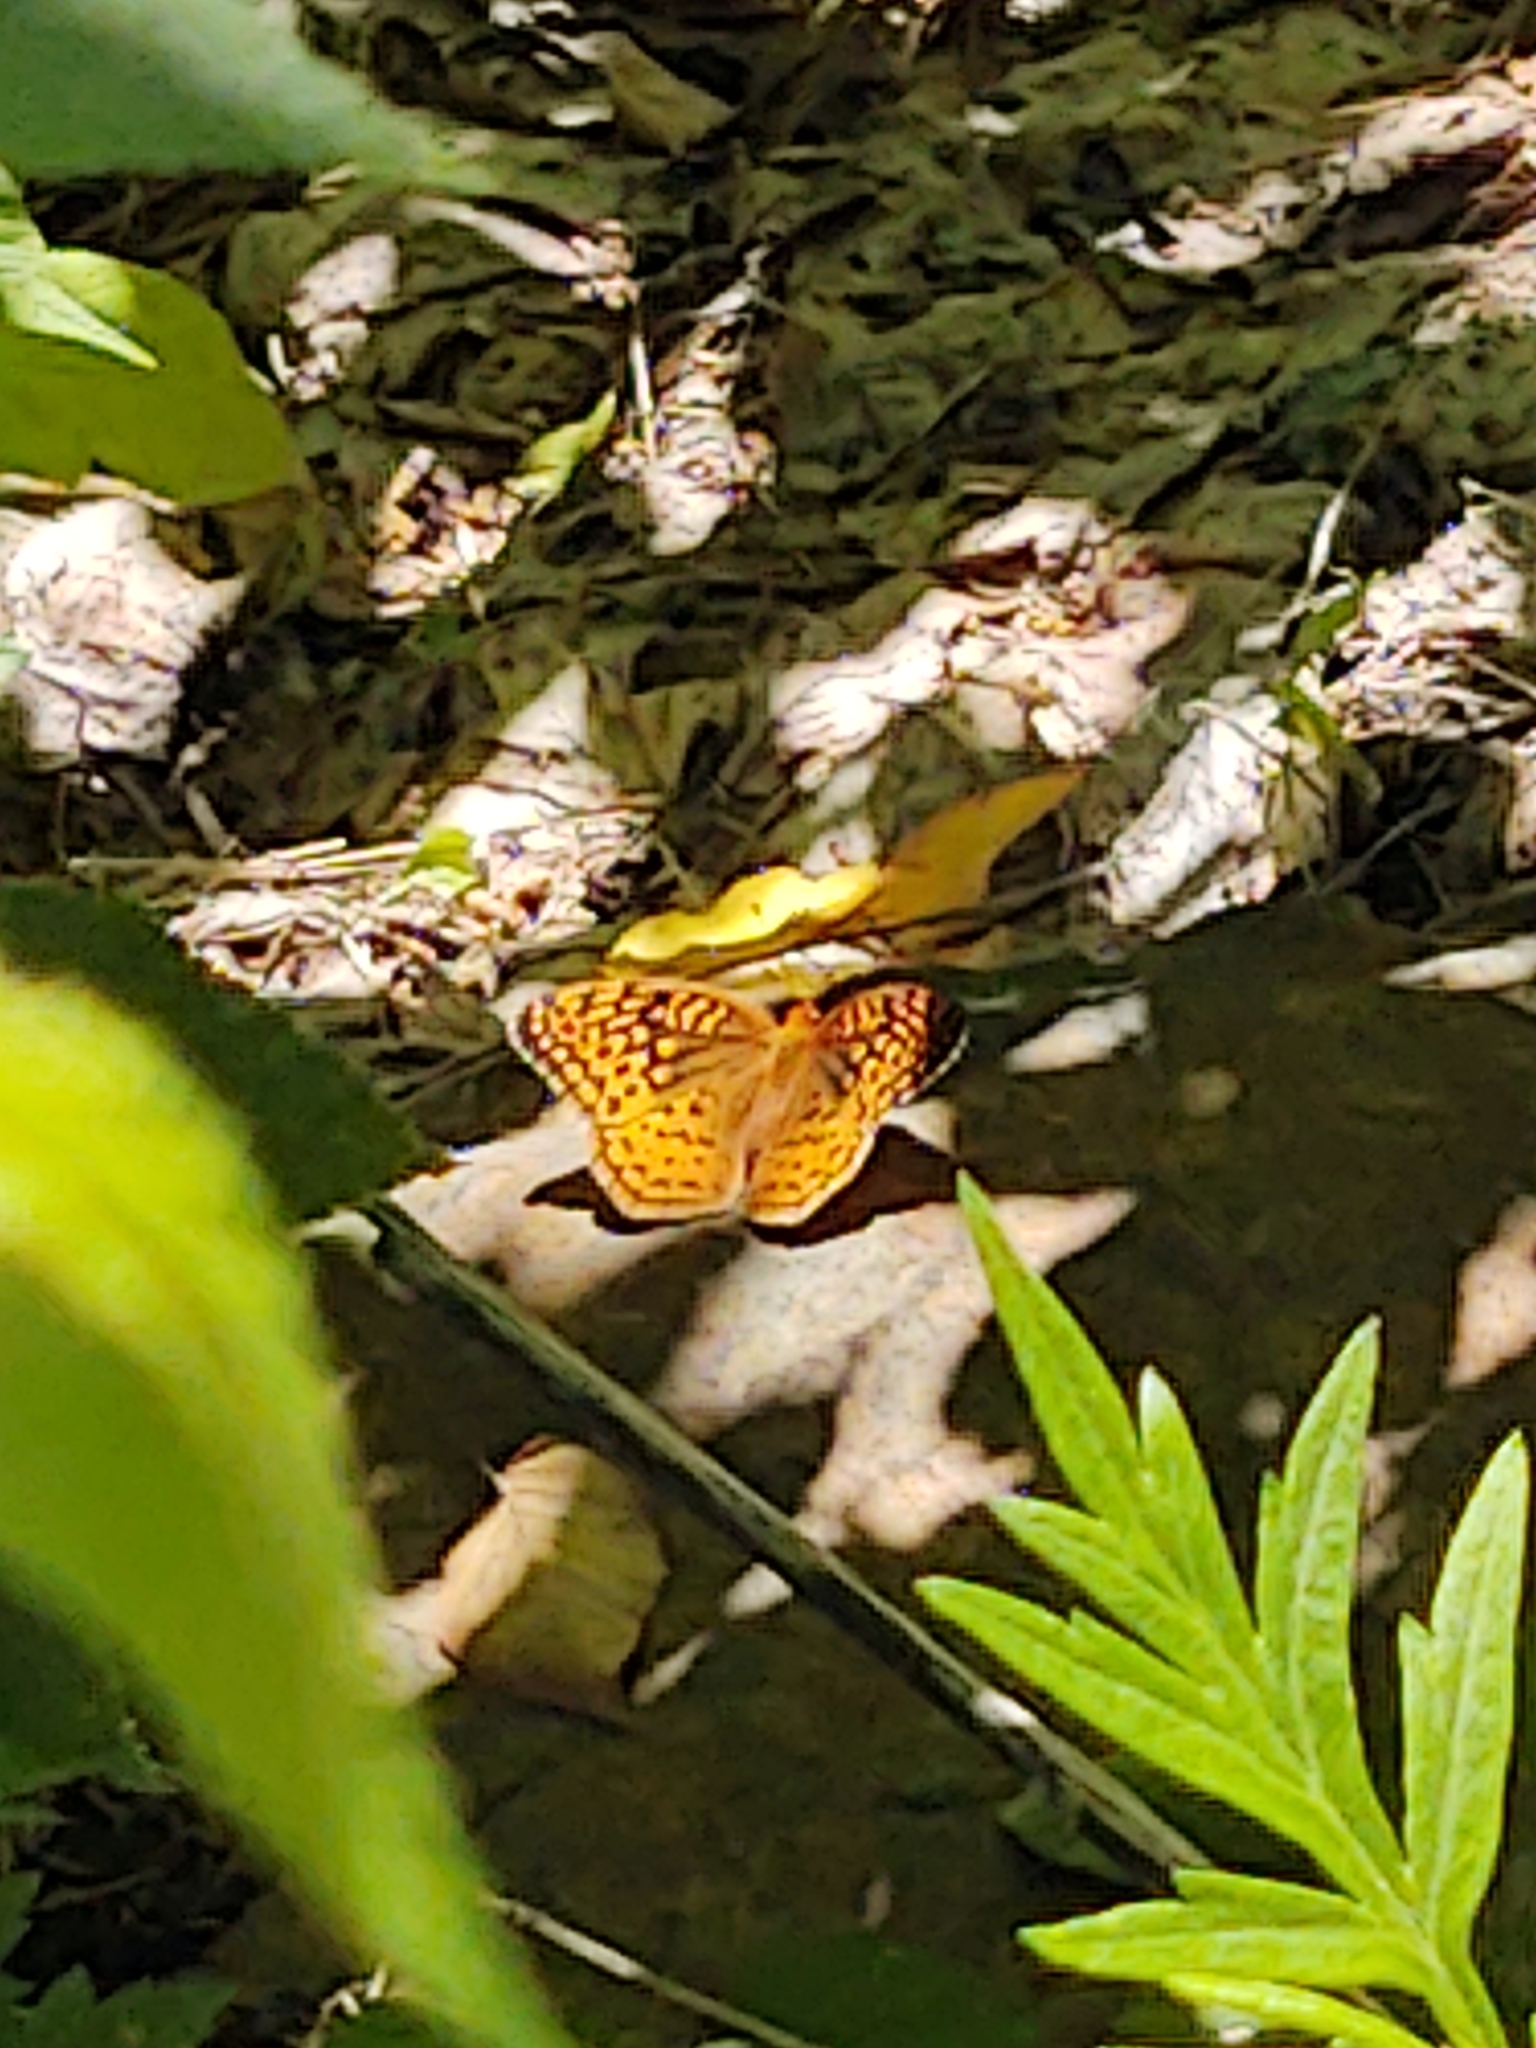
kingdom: Animalia
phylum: Arthropoda
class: Insecta
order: Lepidoptera
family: Nymphalidae
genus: Speyeria
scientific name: Speyeria cybele
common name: Great spangled fritillary
